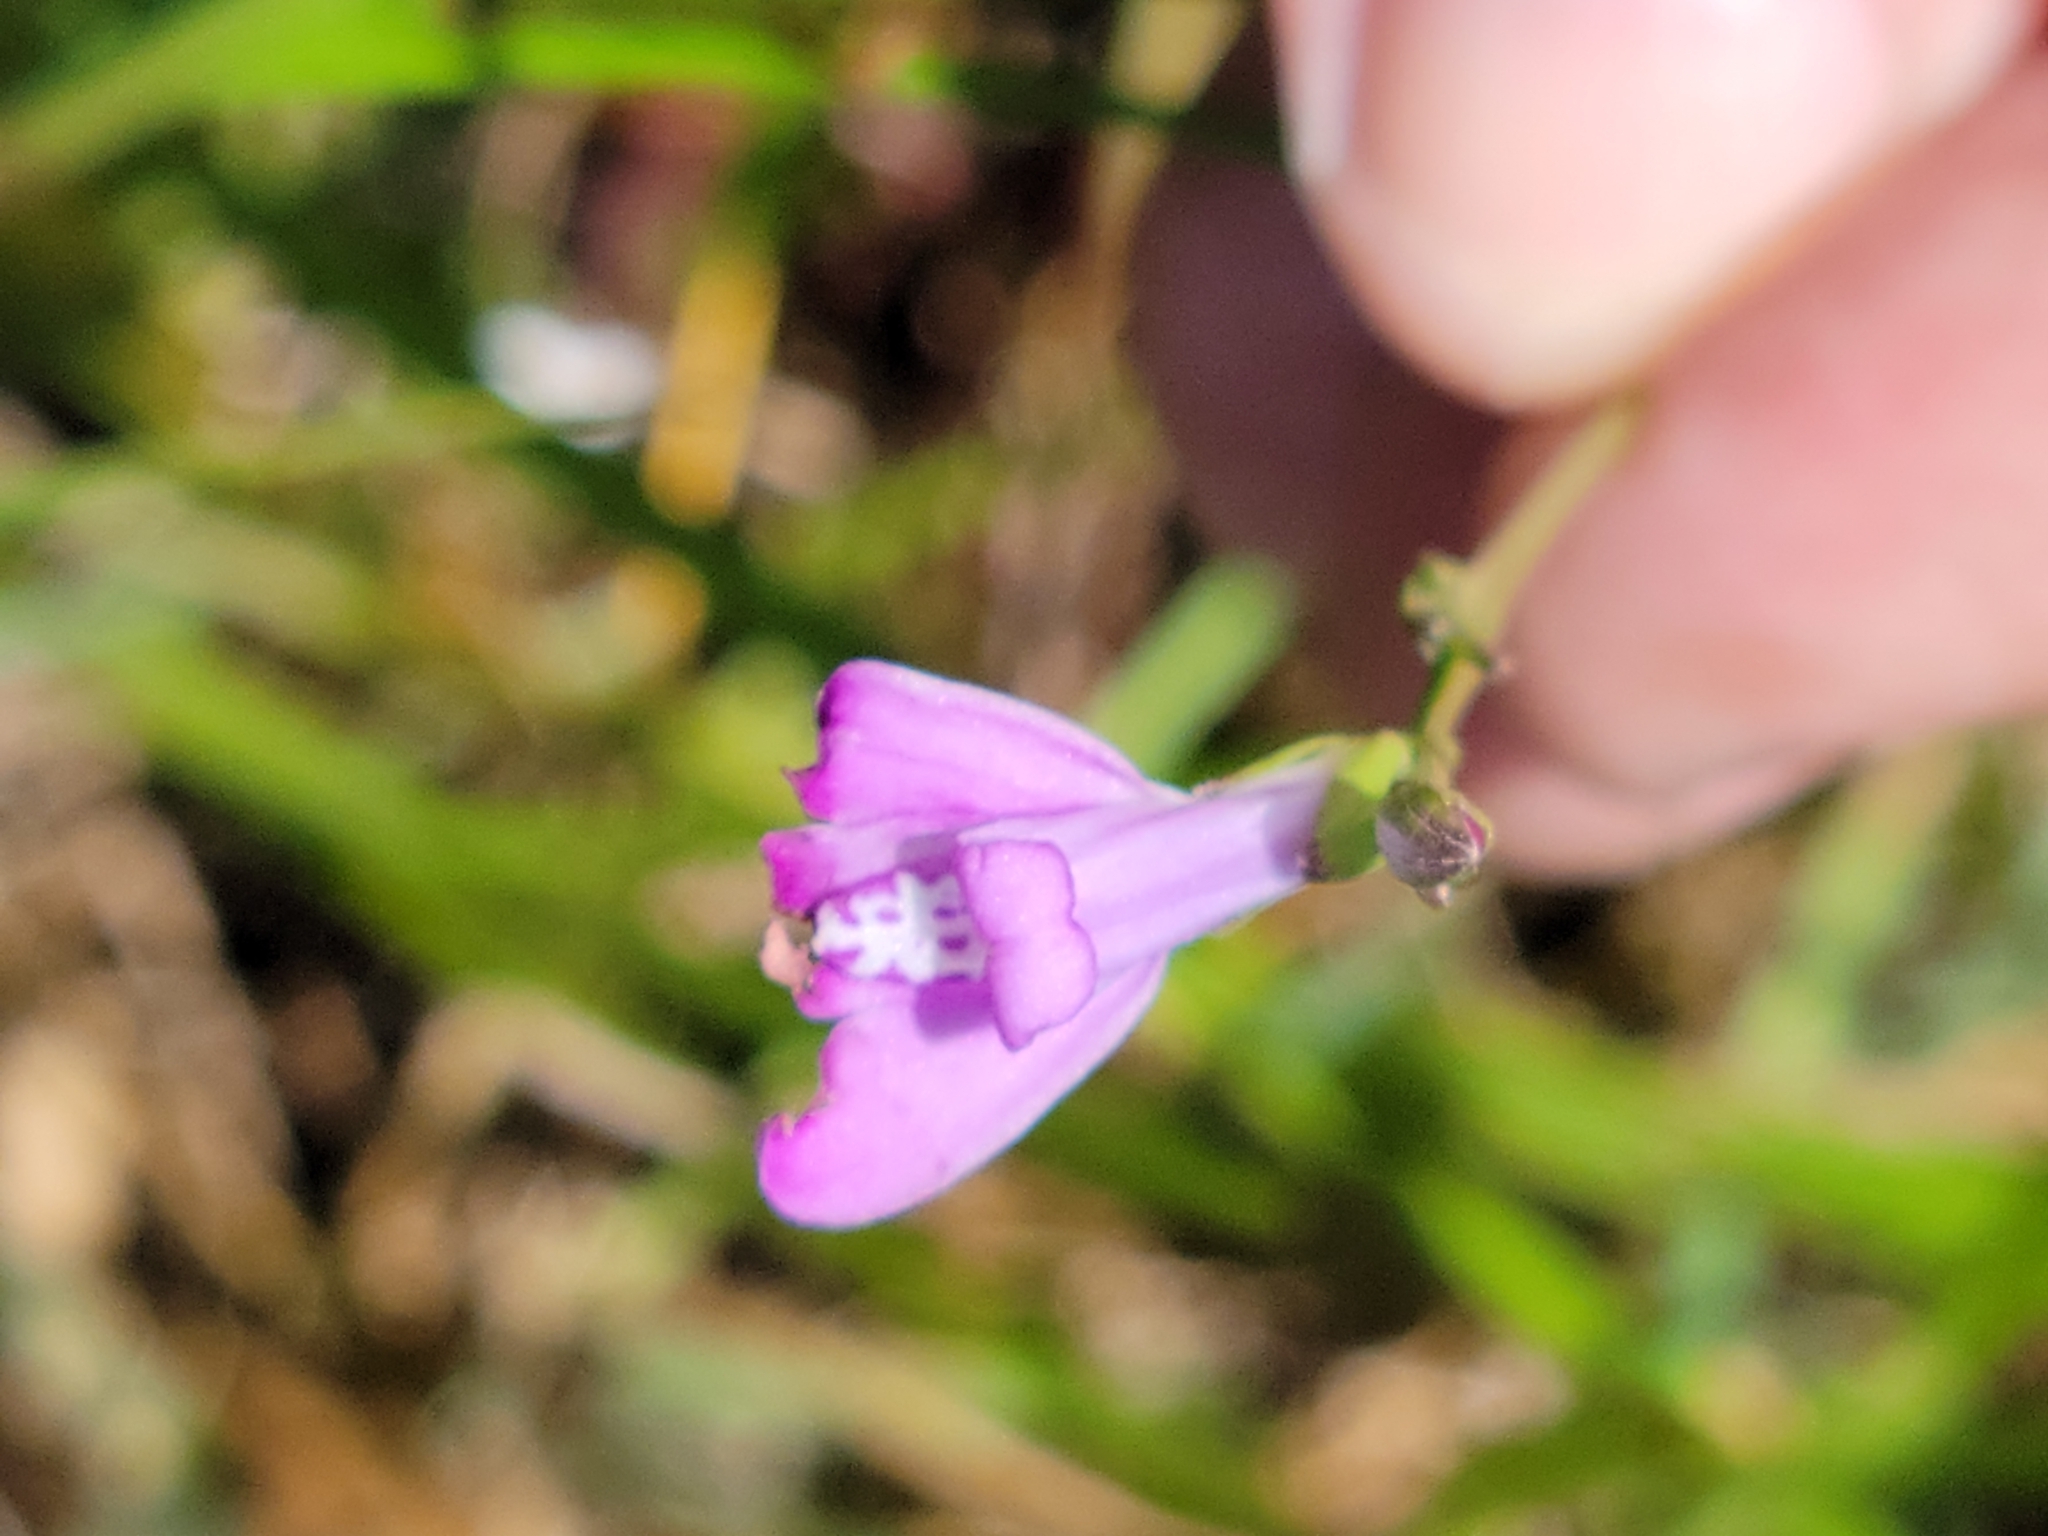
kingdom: Plantae
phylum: Tracheophyta
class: Magnoliopsida
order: Lamiales
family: Acanthaceae
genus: Dianthera
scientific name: Dianthera angusta
